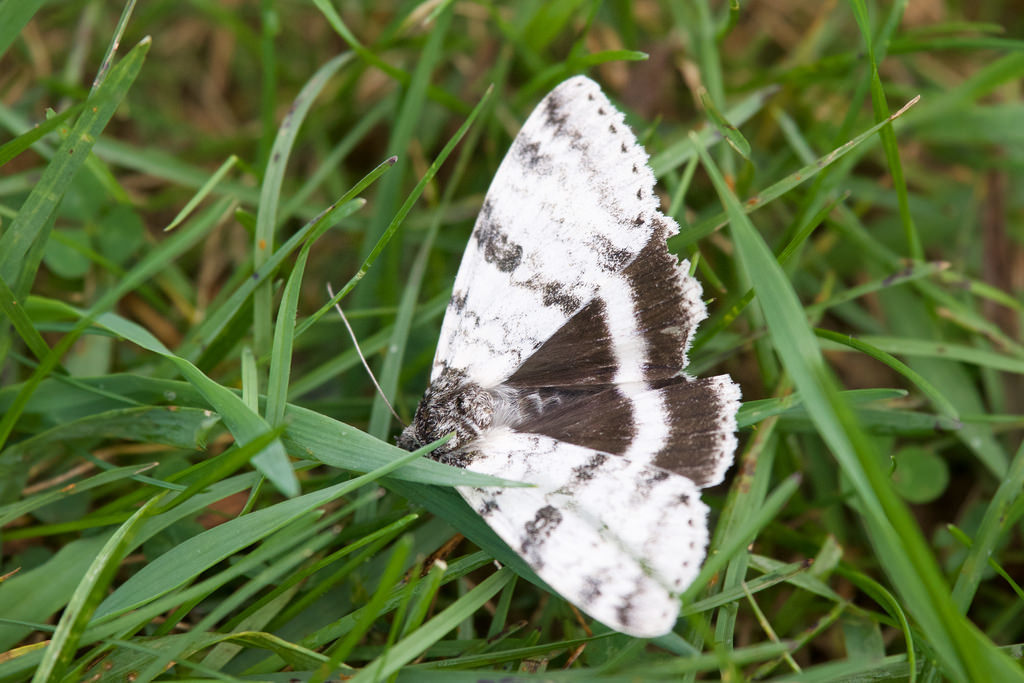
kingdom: Animalia
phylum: Arthropoda
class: Insecta
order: Lepidoptera
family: Erebidae
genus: Catocala
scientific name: Catocala relicta
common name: White underwing
